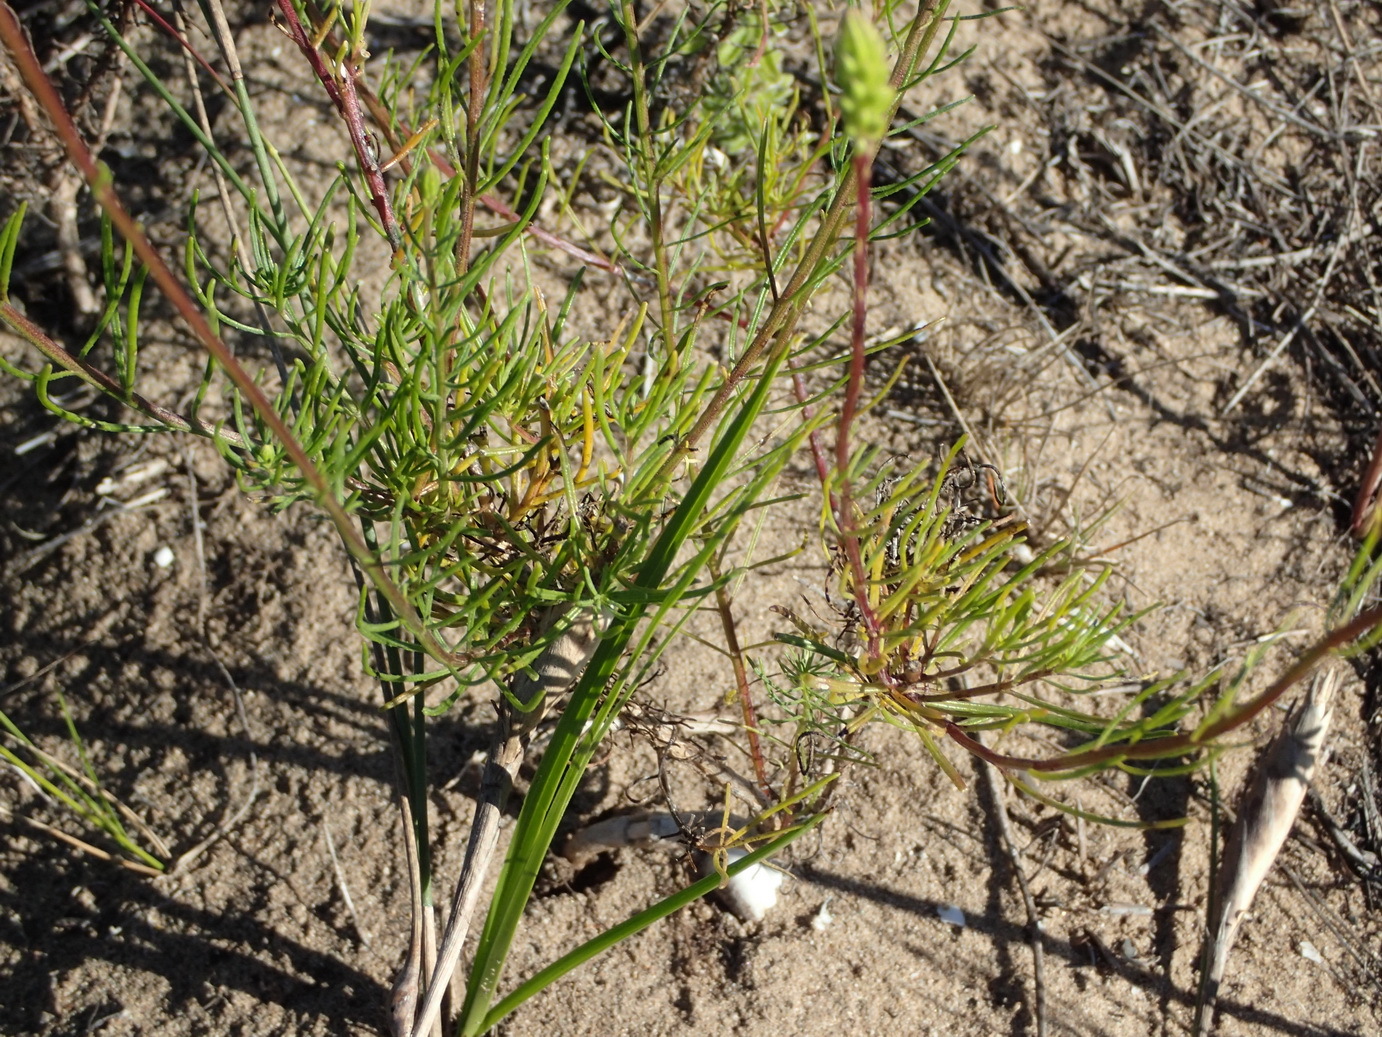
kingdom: Plantae
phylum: Tracheophyta
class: Magnoliopsida
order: Lamiales
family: Scrophulariaceae
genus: Hebenstretia
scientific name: Hebenstretia integrifolia
